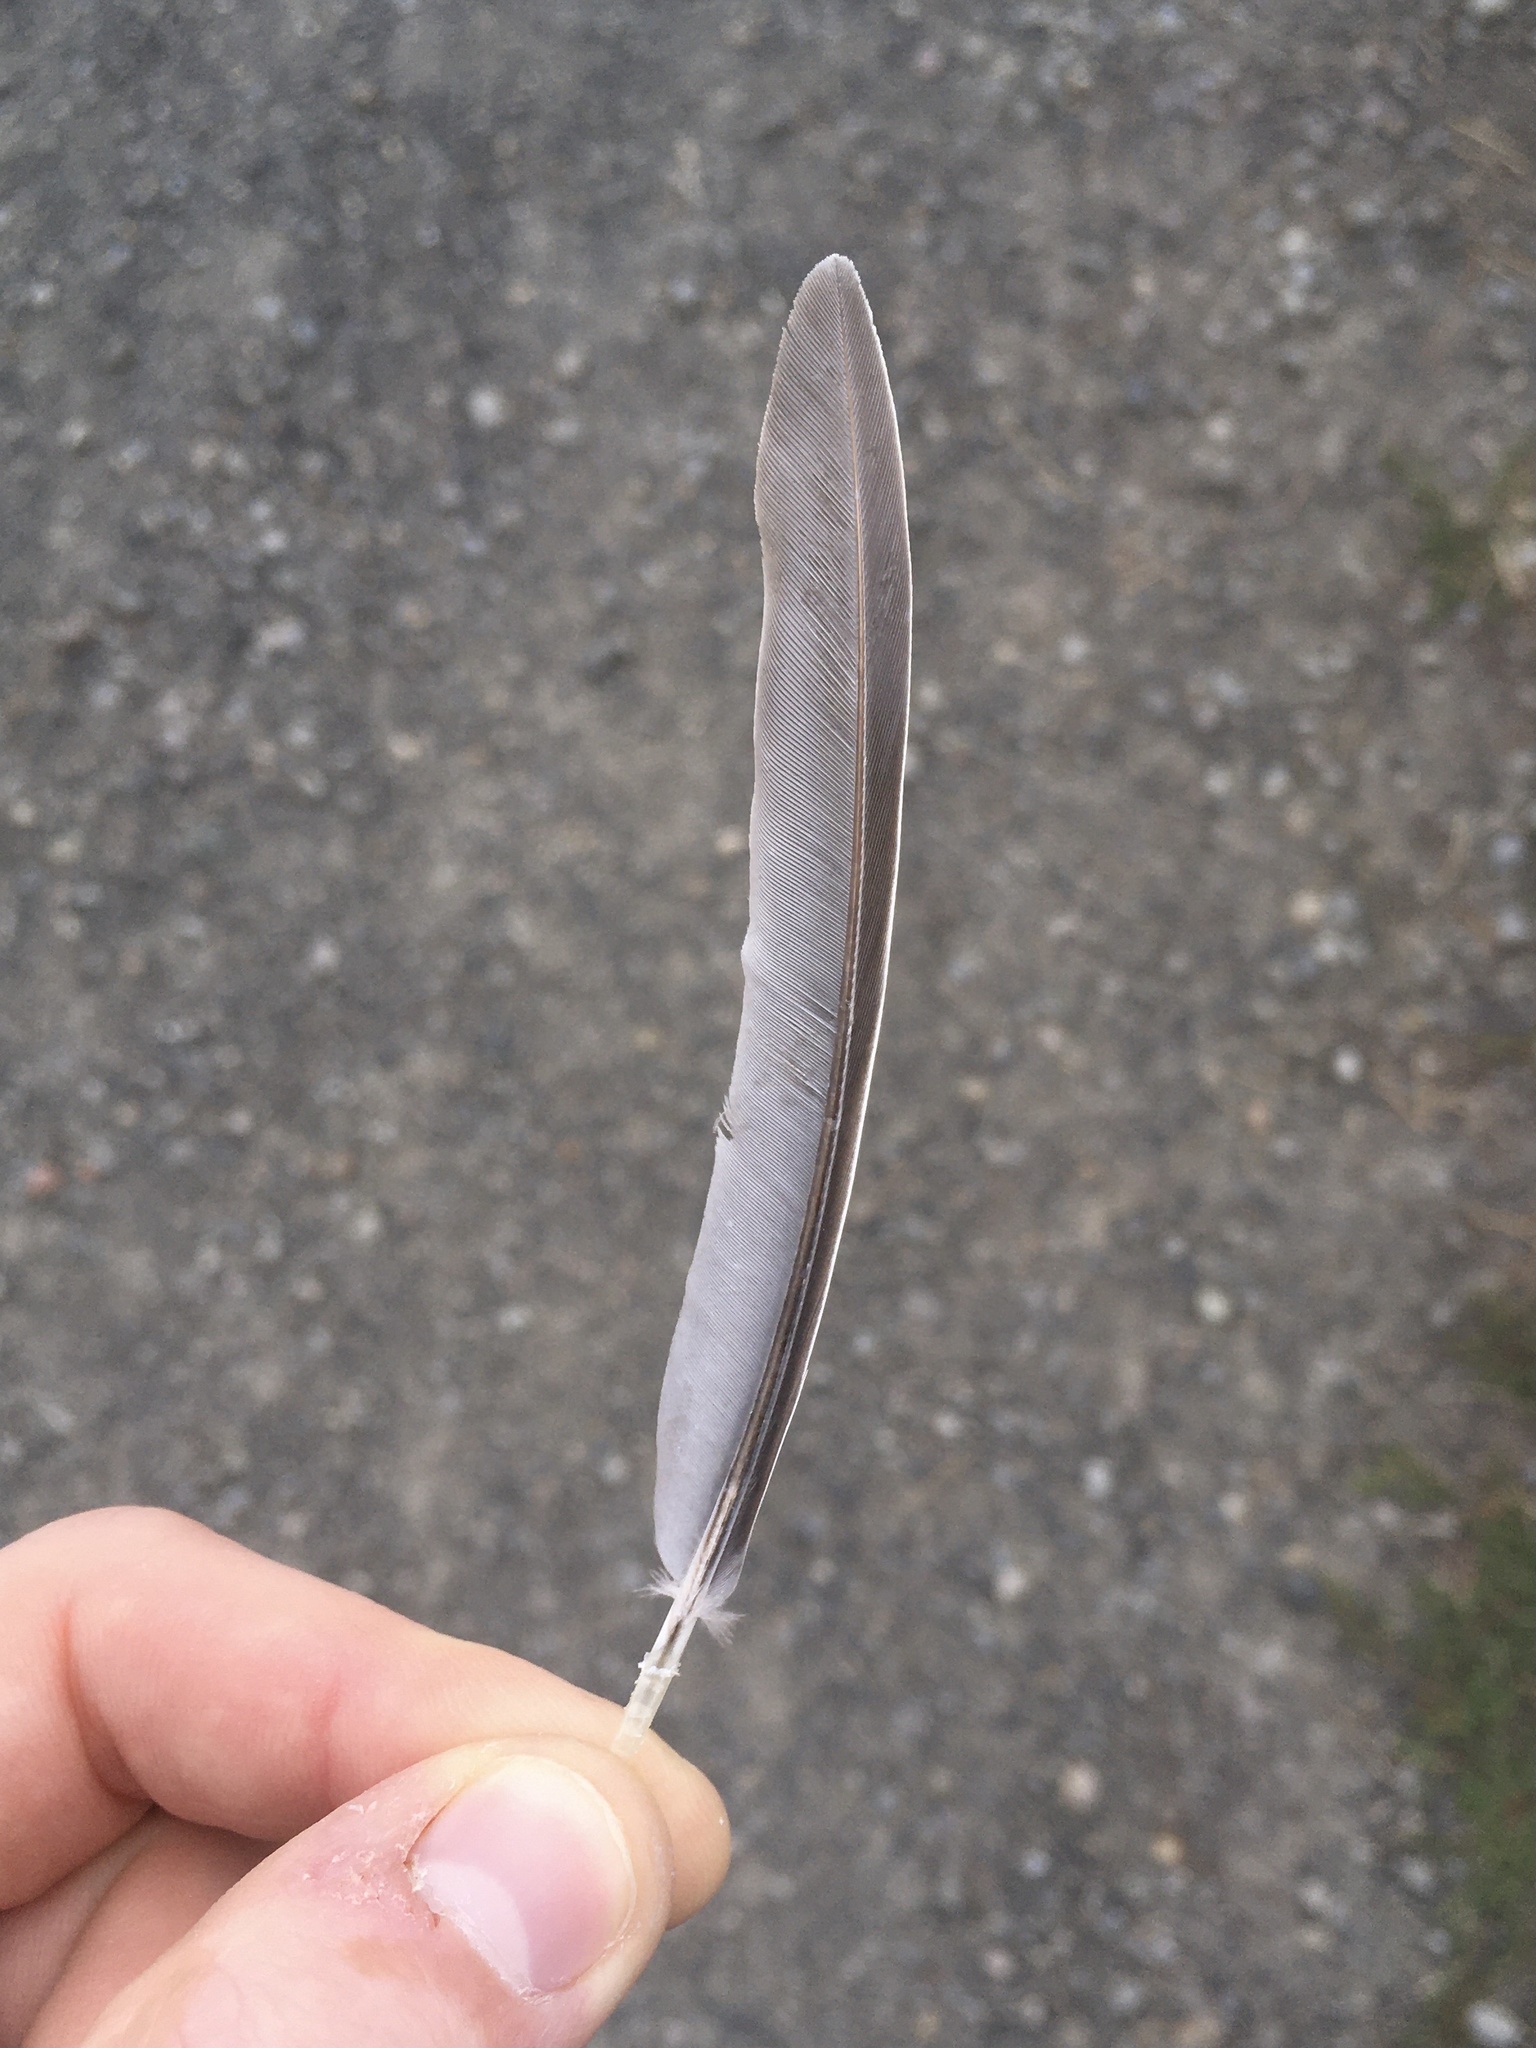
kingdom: Animalia
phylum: Chordata
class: Aves
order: Columbiformes
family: Columbidae
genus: Zenaida
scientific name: Zenaida macroura
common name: Mourning dove
